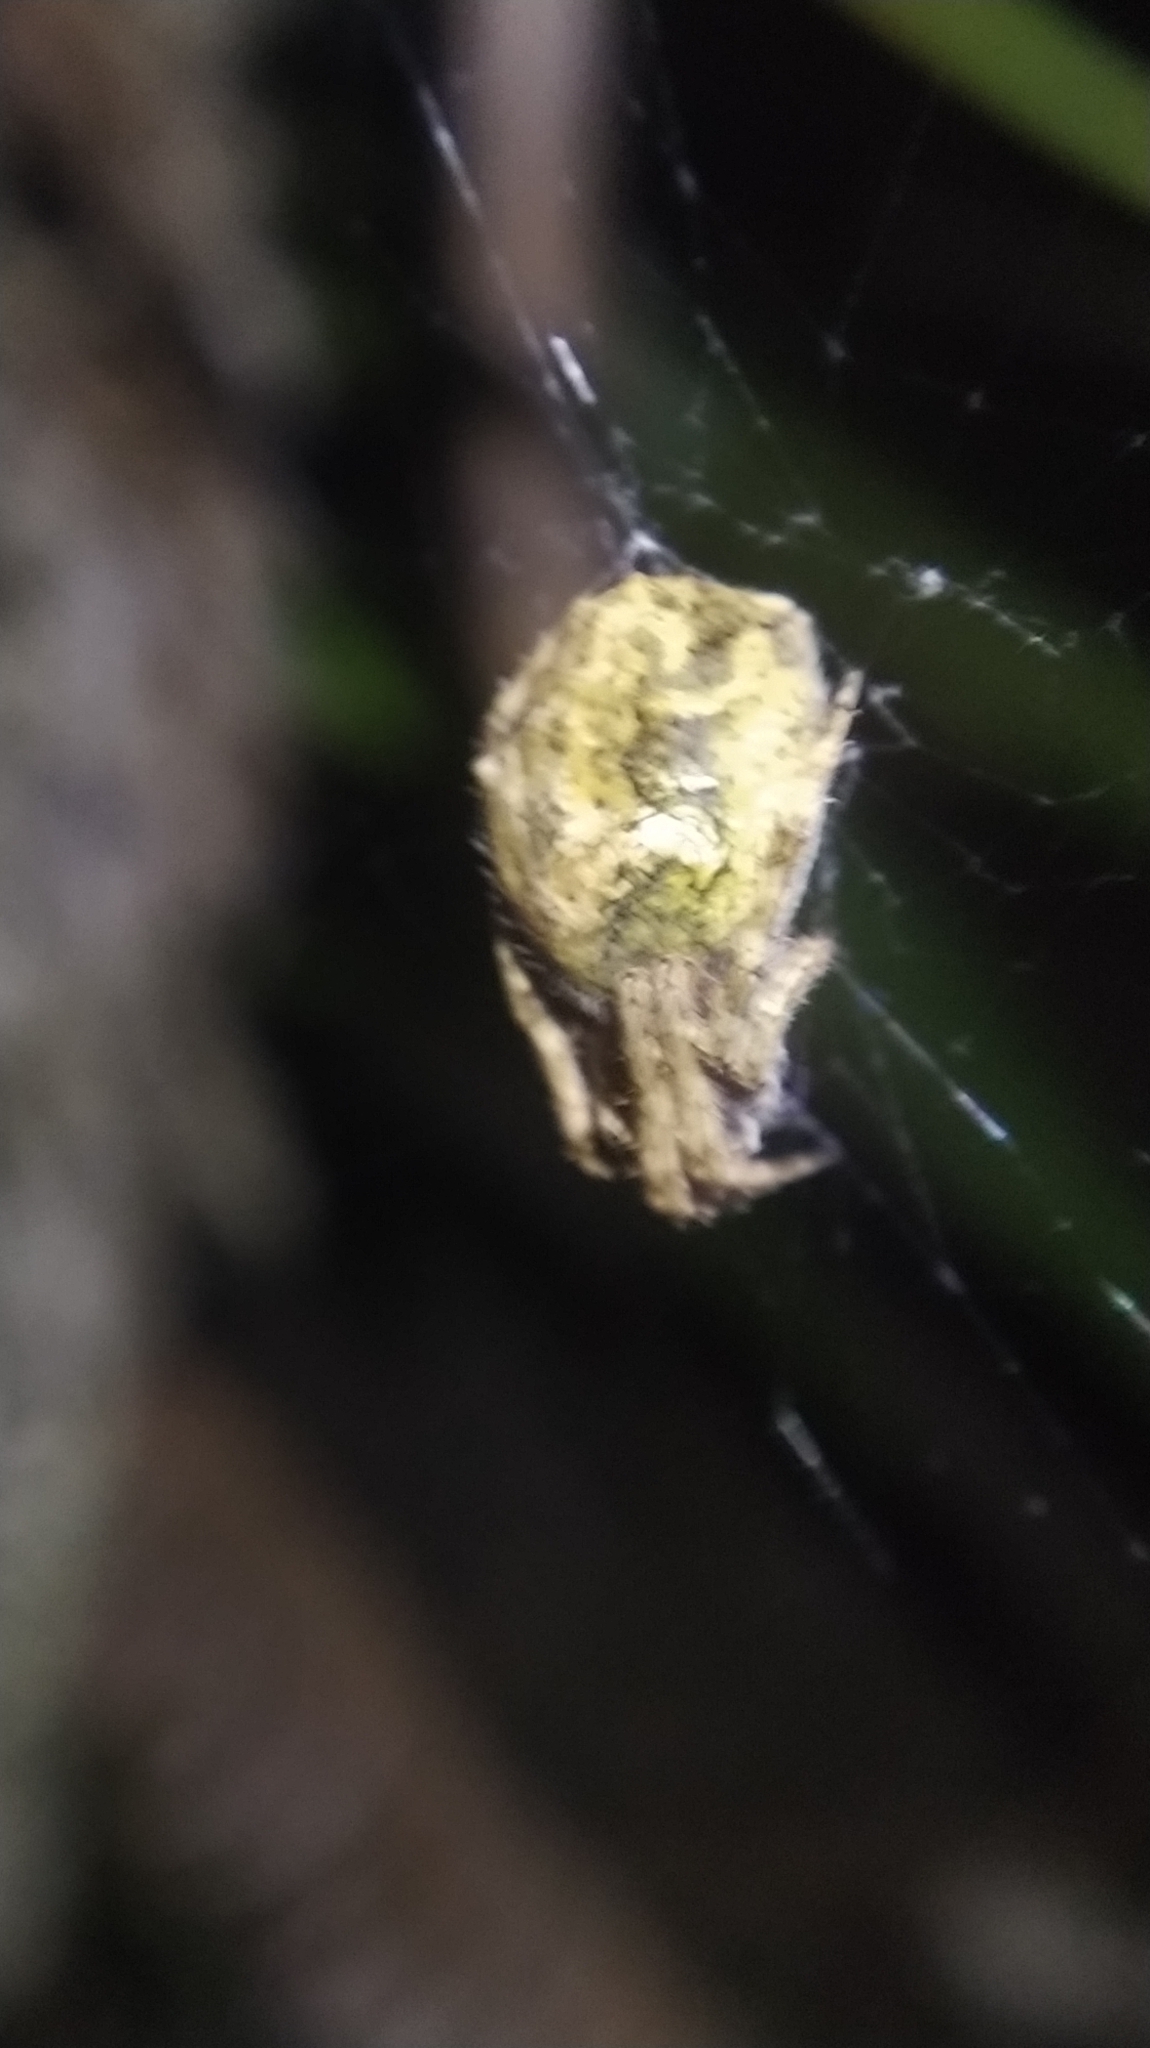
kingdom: Animalia
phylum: Arthropoda
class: Arachnida
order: Araneae
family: Araneidae
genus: Eriophora
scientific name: Eriophora pustulosa
